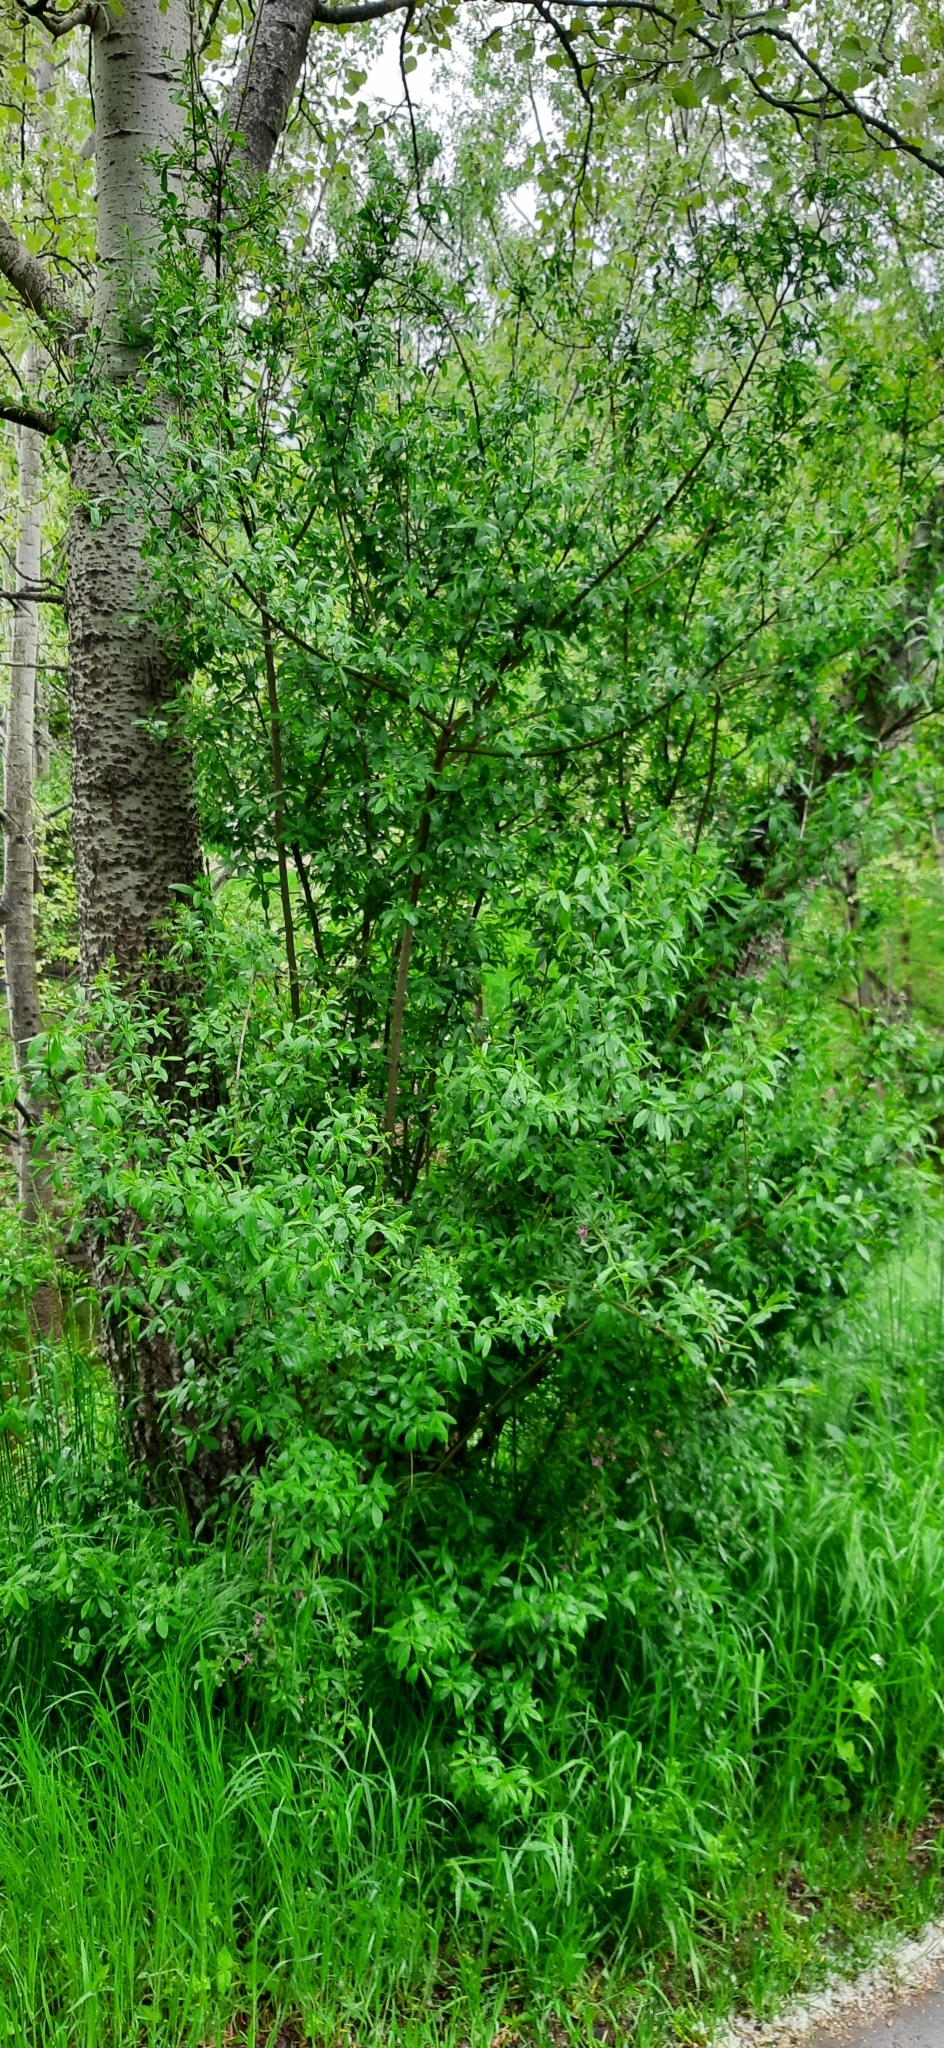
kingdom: Plantae
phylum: Tracheophyta
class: Magnoliopsida
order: Solanales
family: Solanaceae
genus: Lycium
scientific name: Lycium barbarum
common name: Duke of argyll's teaplant
